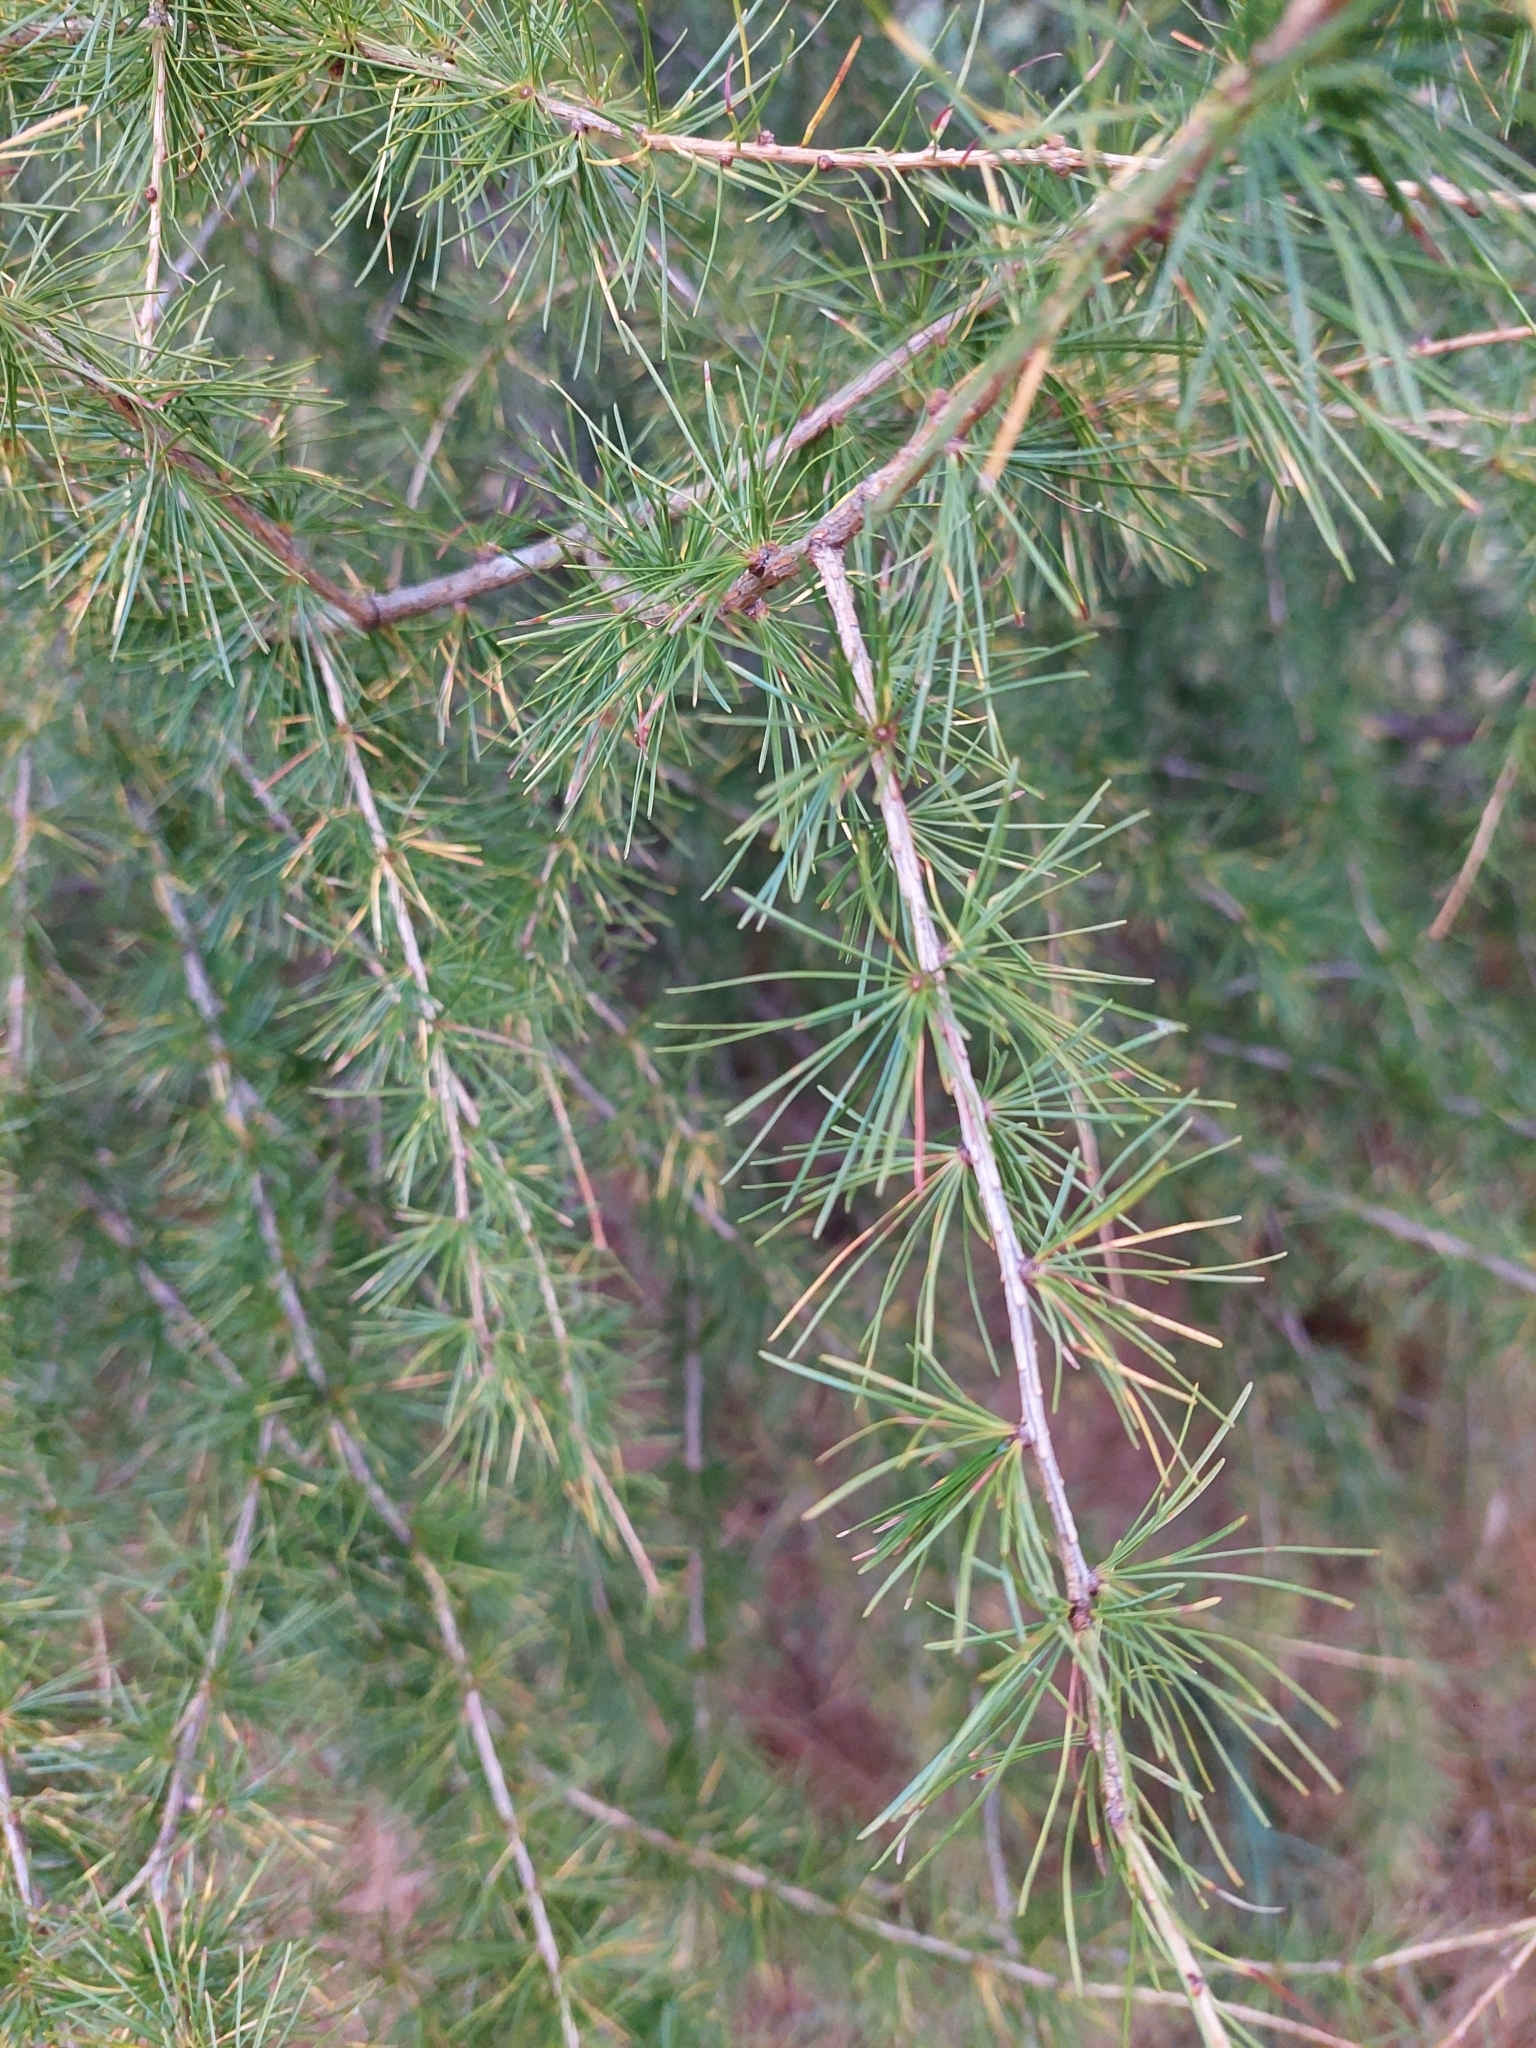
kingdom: Plantae
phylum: Tracheophyta
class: Pinopsida
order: Pinales
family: Pinaceae
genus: Larix
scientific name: Larix laricina
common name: American larch
